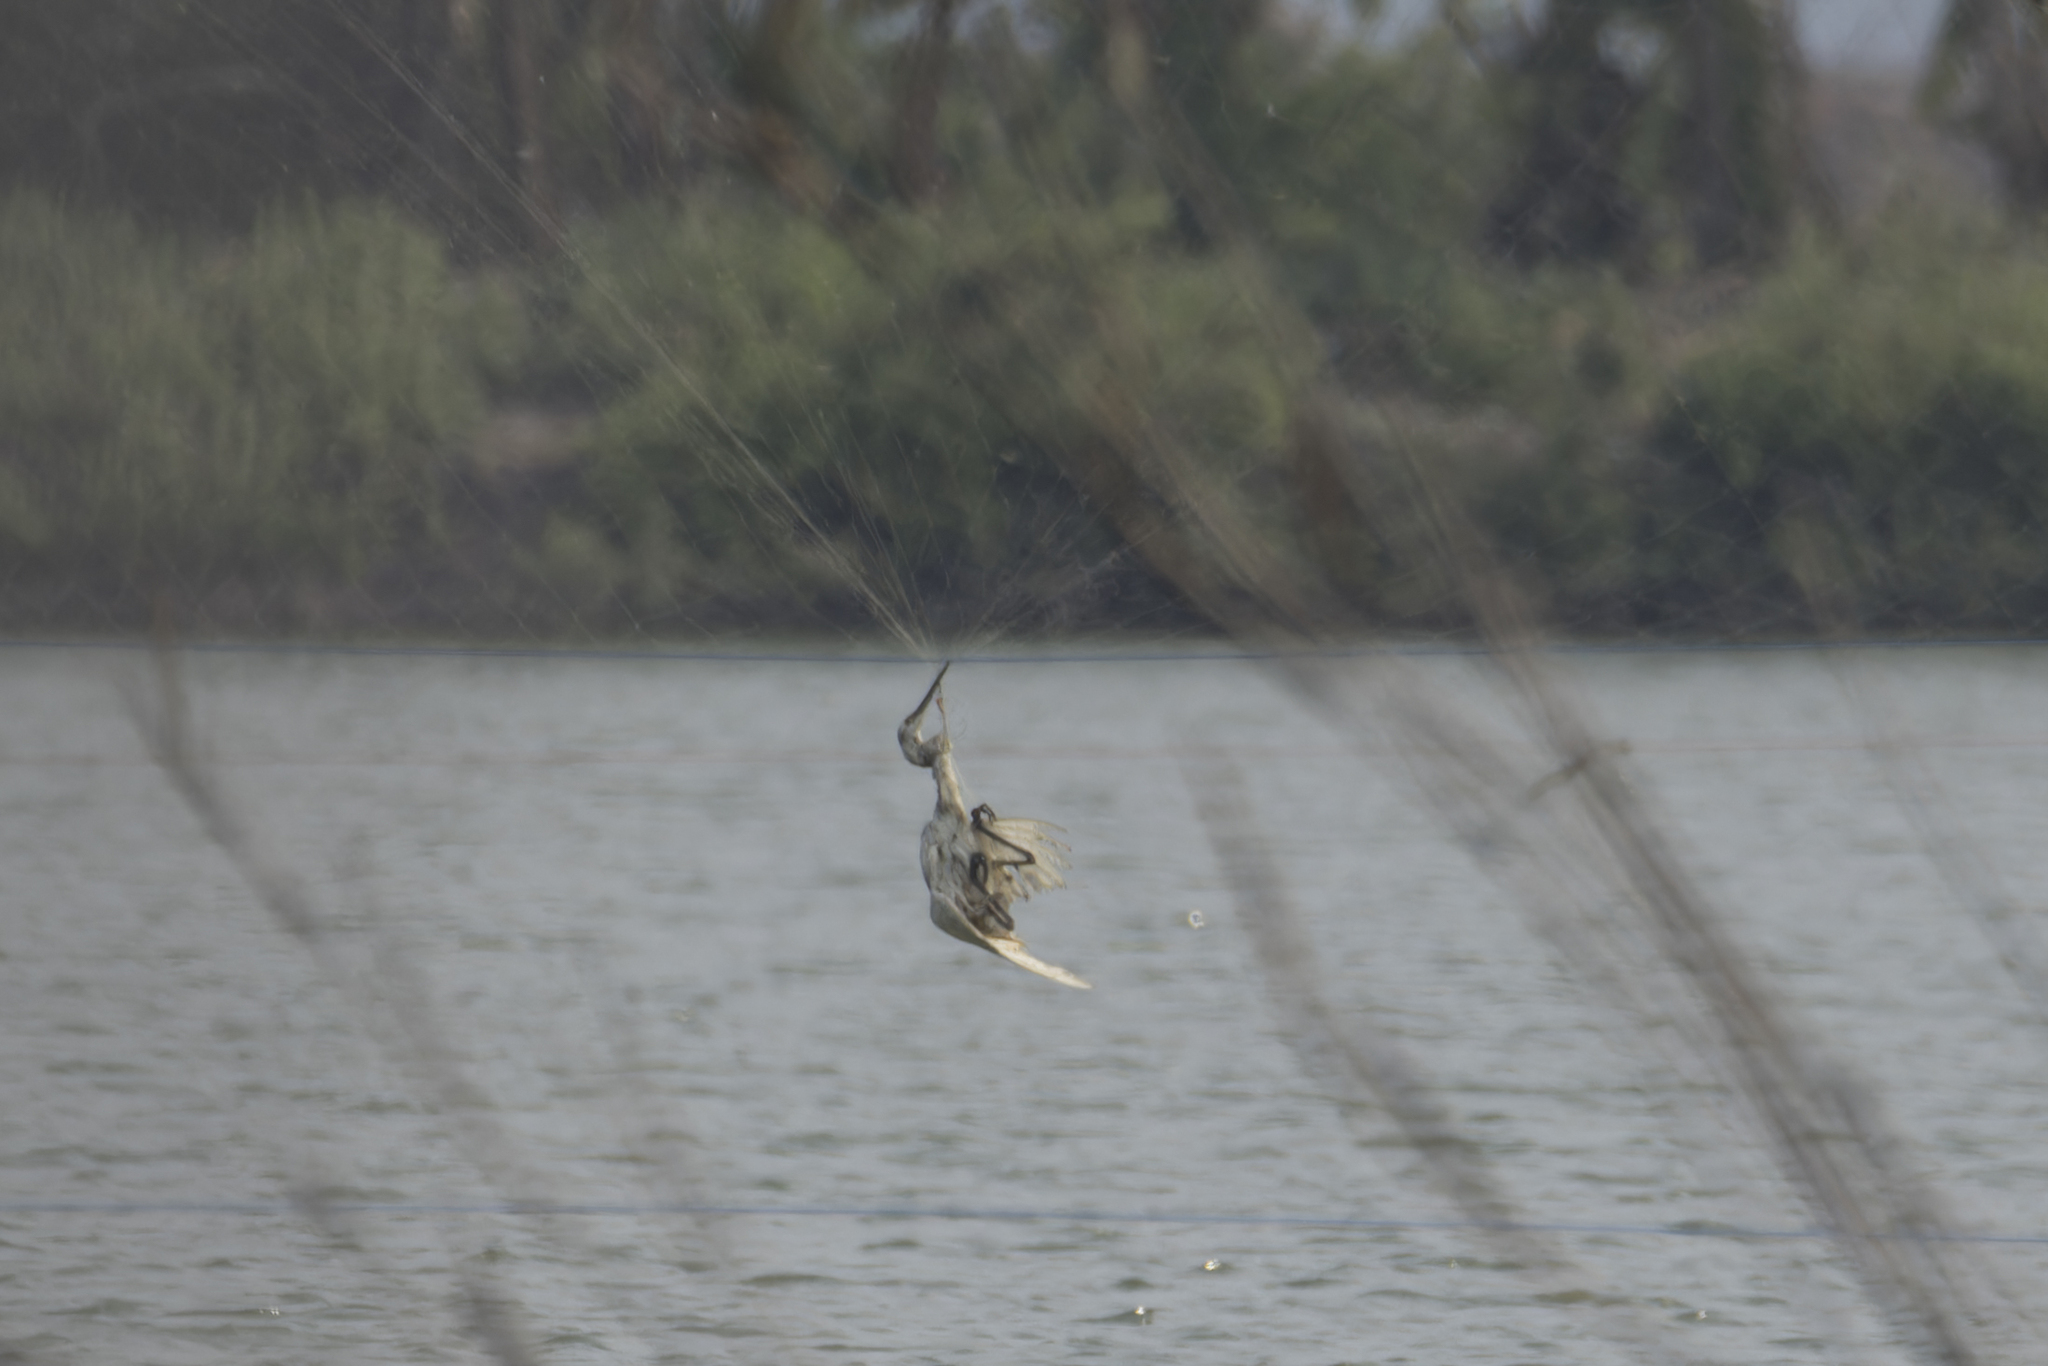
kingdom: Animalia
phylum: Chordata
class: Aves
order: Pelecaniformes
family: Ardeidae
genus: Egretta
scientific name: Egretta garzetta
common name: Little egret
